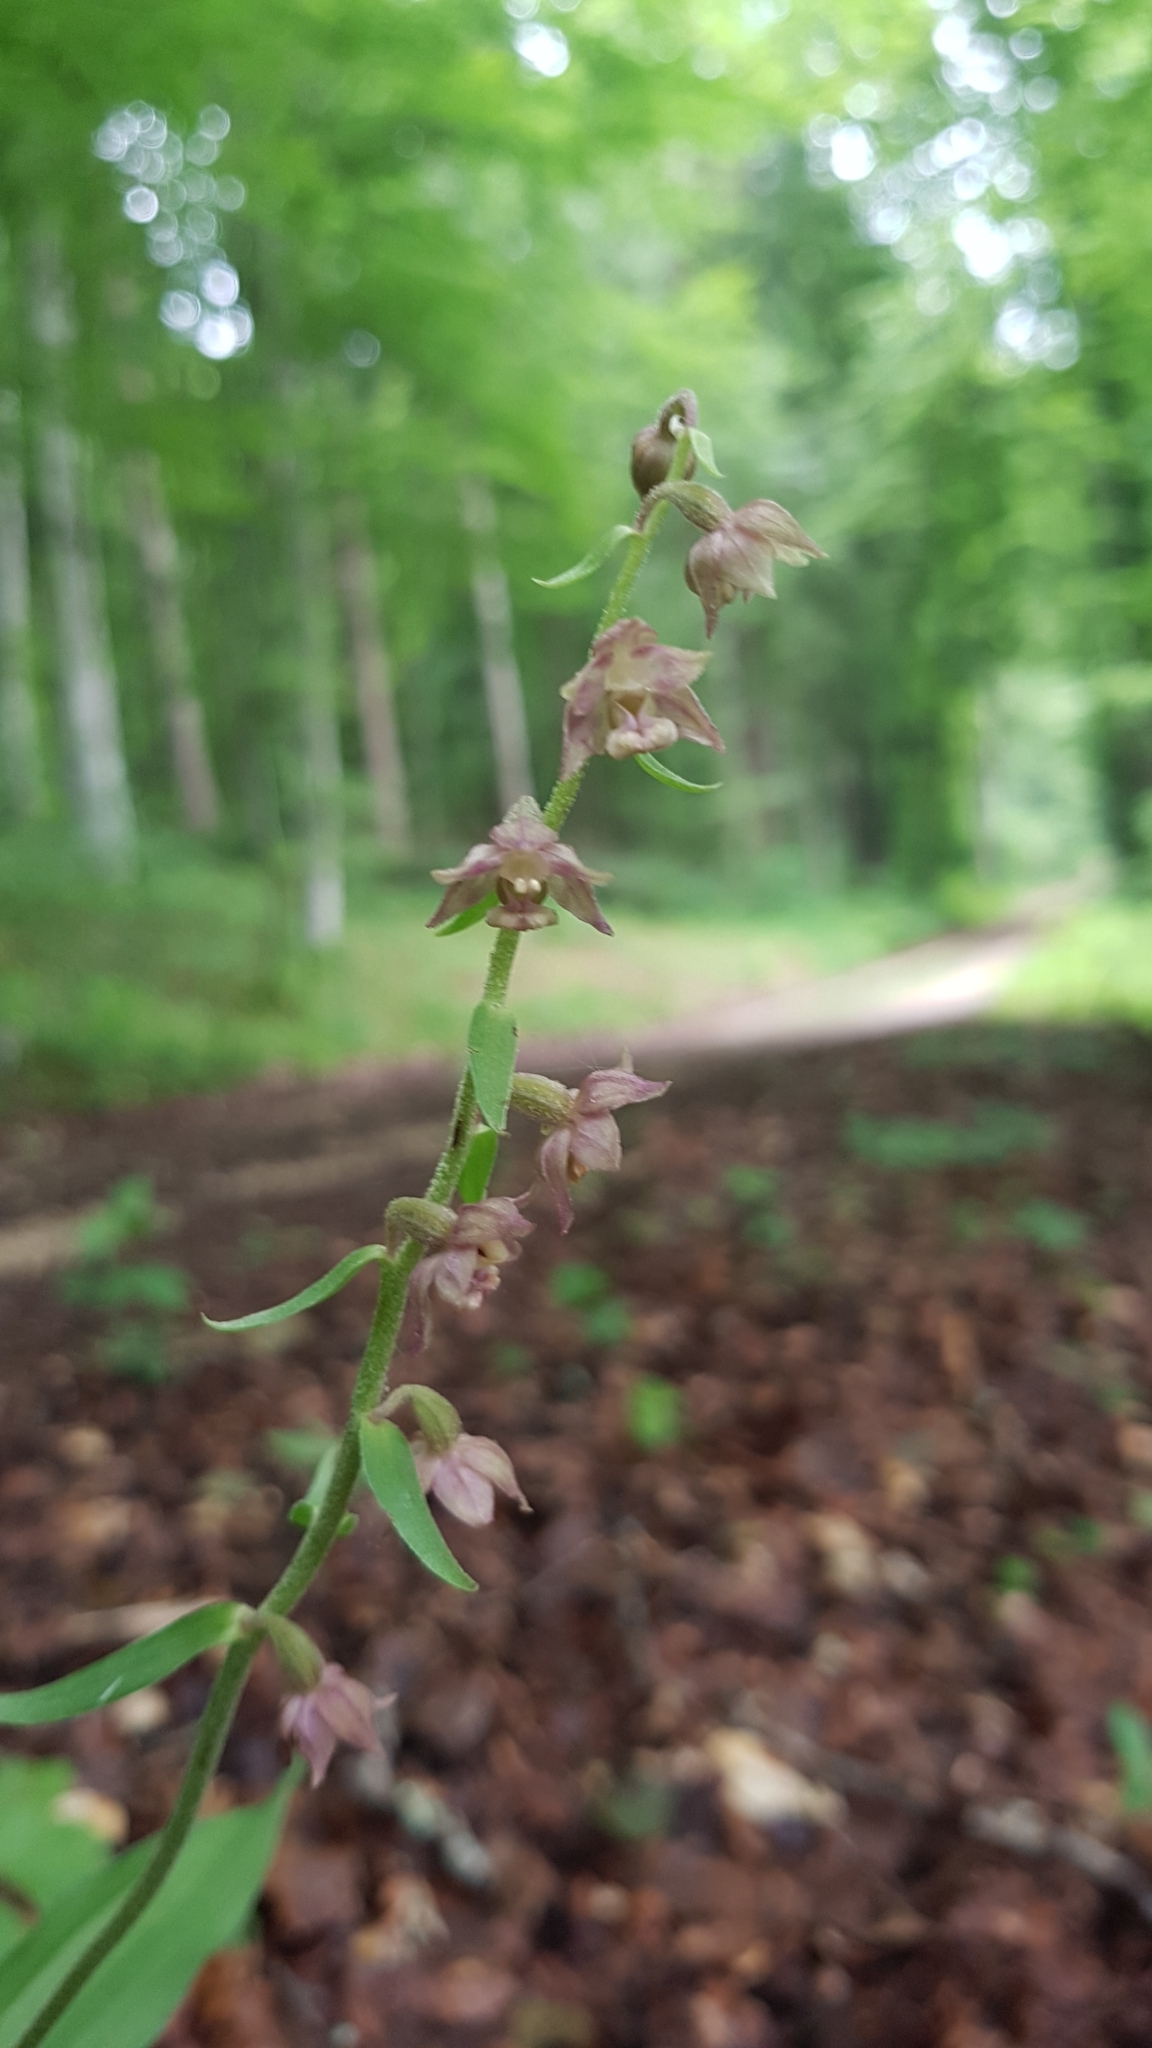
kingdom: Plantae
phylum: Tracheophyta
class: Liliopsida
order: Asparagales
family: Orchidaceae
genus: Epipactis
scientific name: Epipactis atrorubens
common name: Dark-red helleborine
